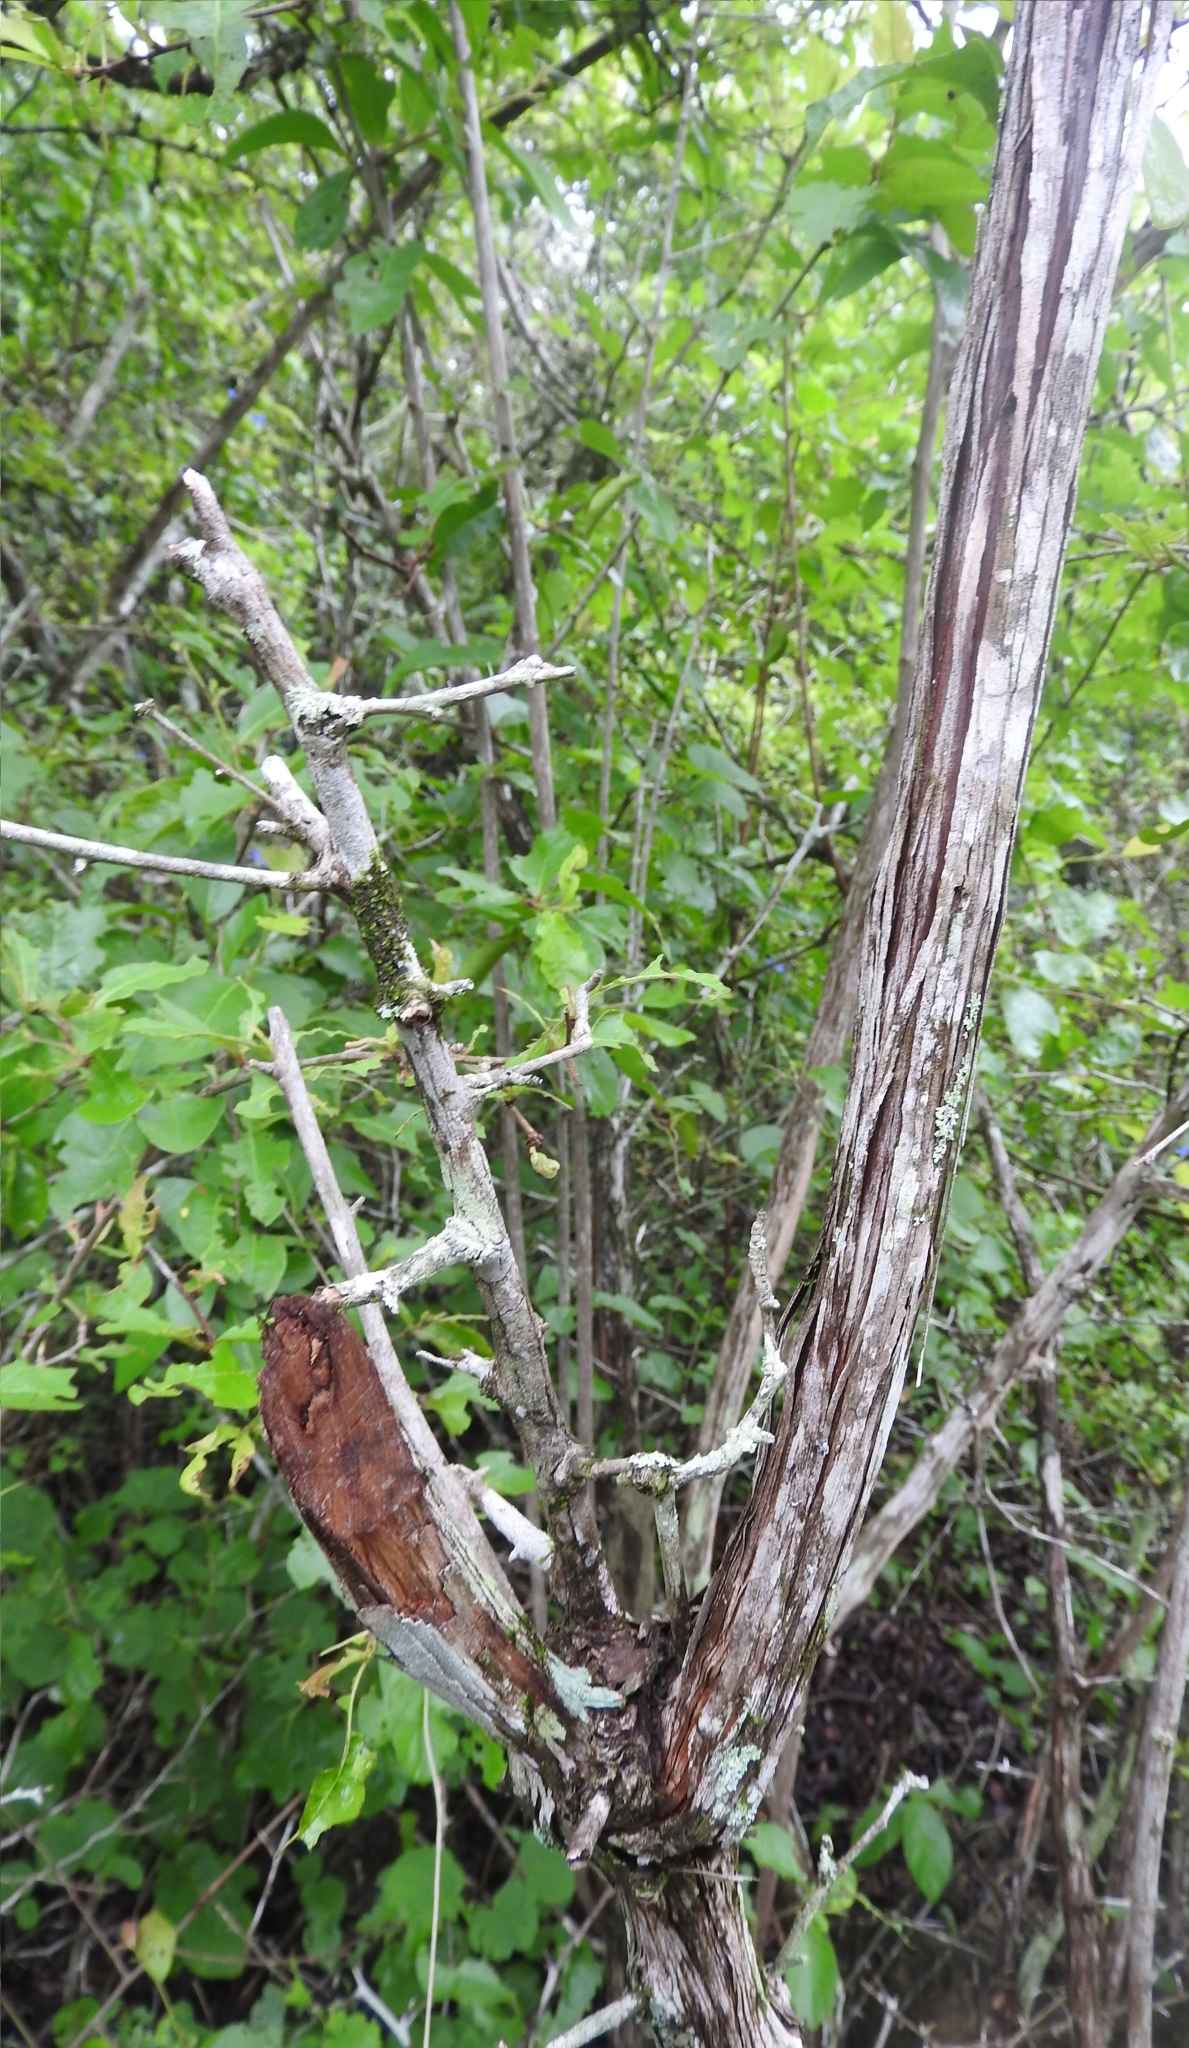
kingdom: Plantae
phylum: Tracheophyta
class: Magnoliopsida
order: Caryophyllales
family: Polygonaceae
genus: Gymnopodium
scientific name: Gymnopodium floribundum
